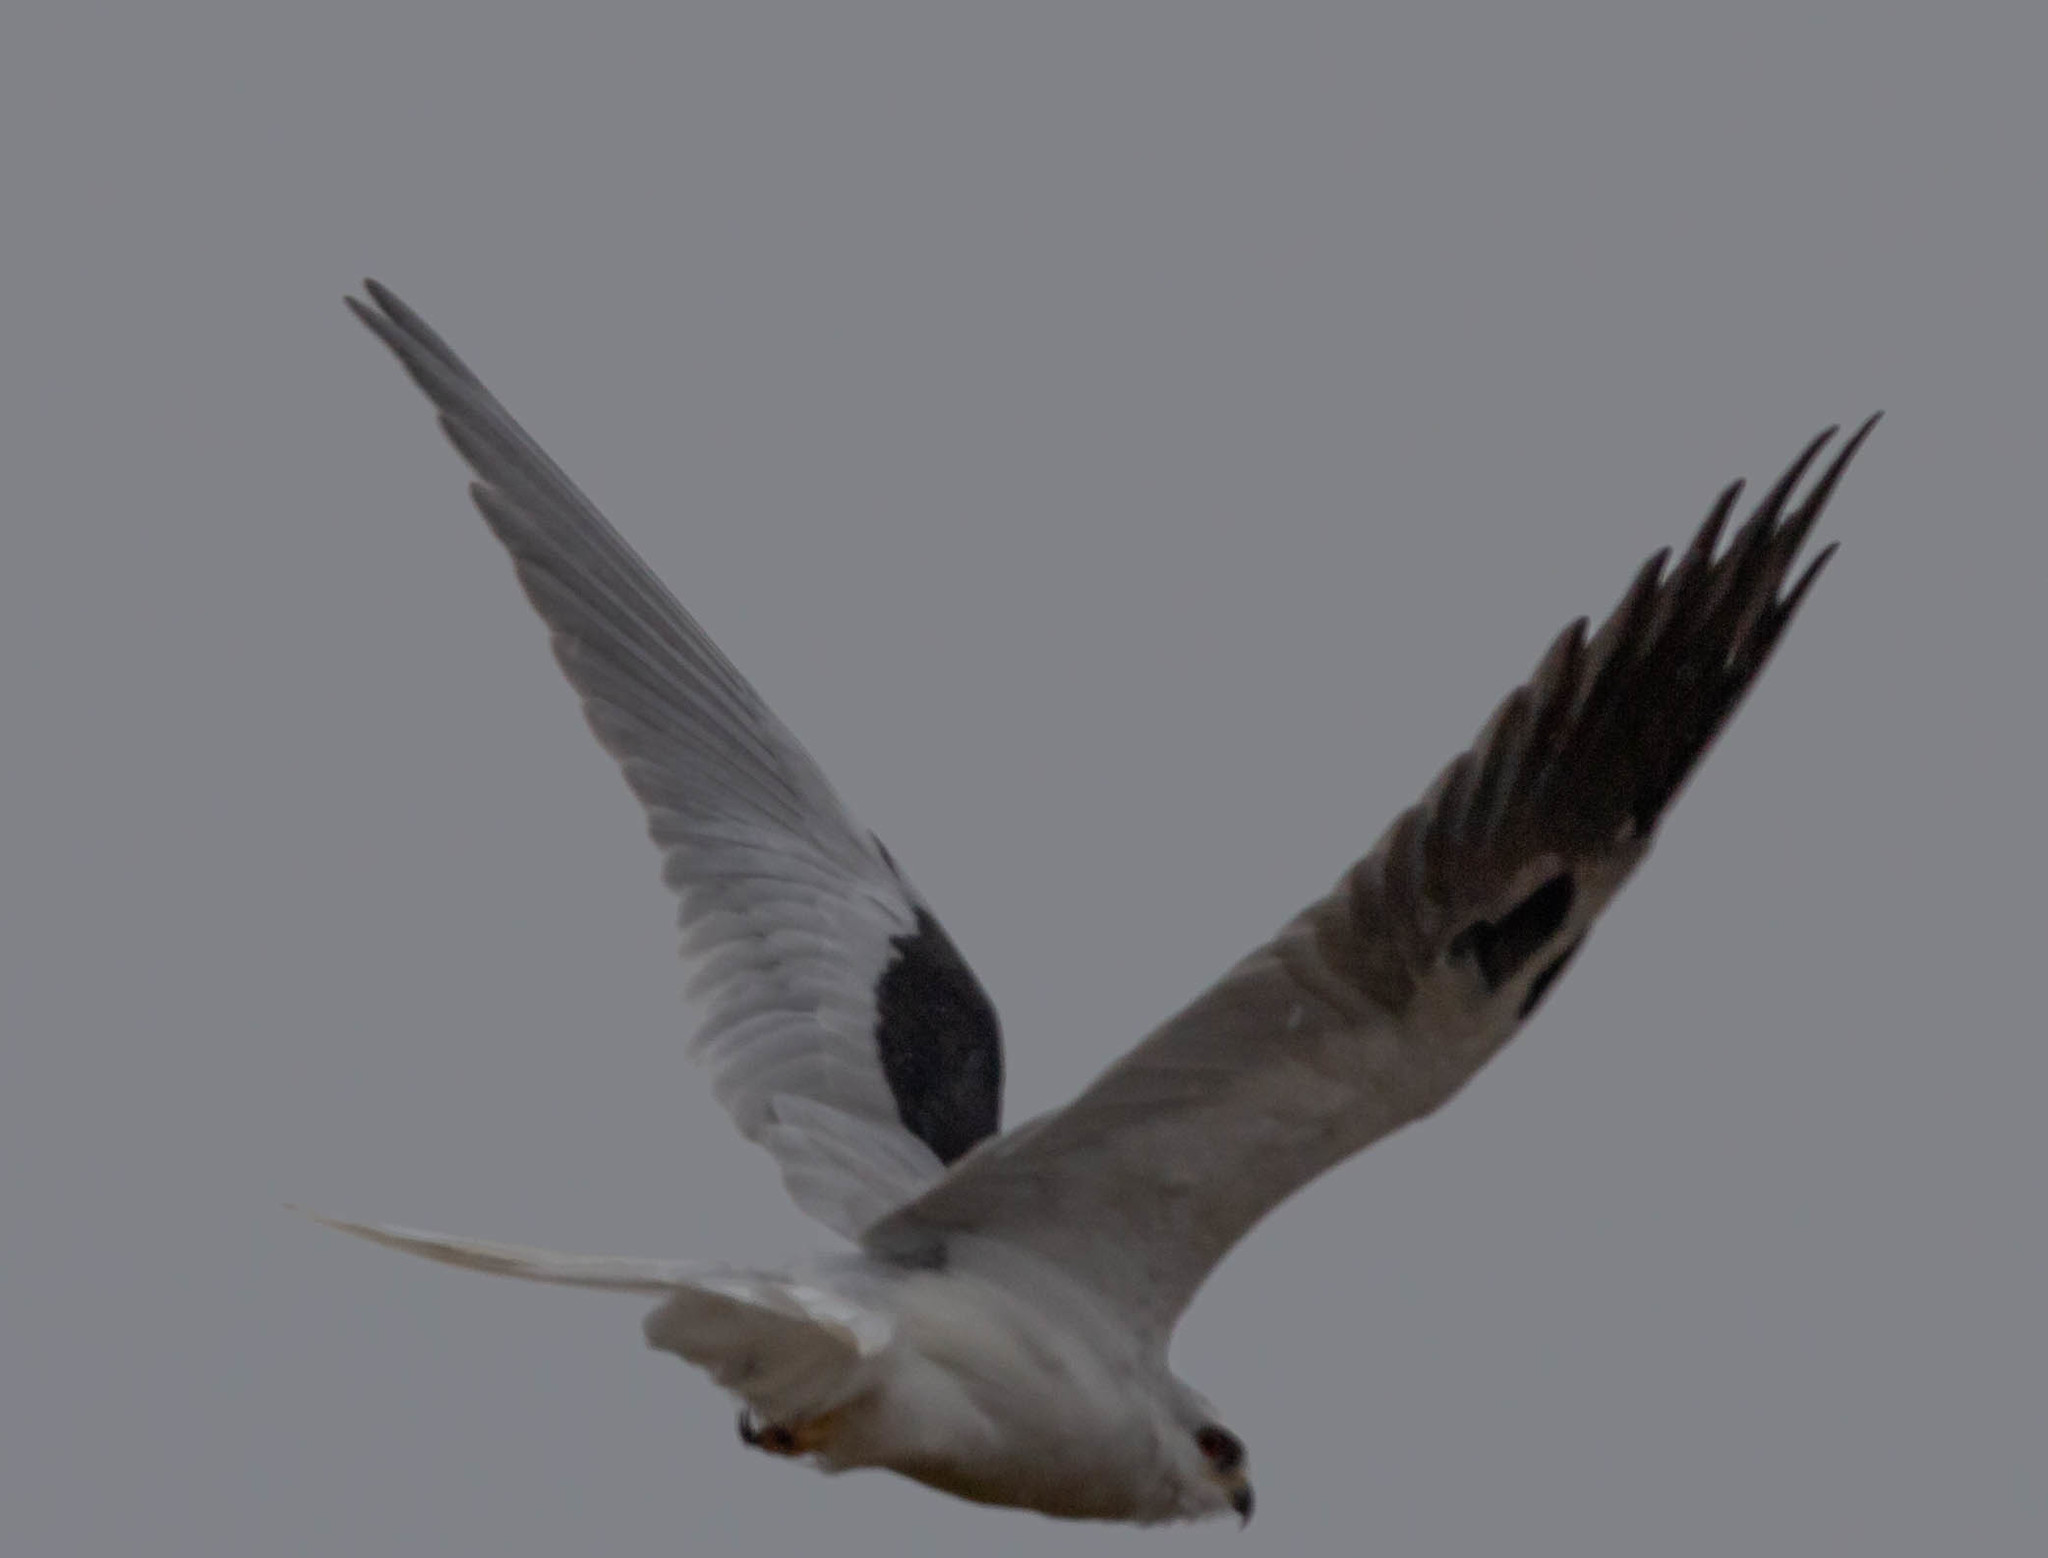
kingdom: Animalia
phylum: Chordata
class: Aves
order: Accipitriformes
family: Accipitridae
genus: Elanus
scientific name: Elanus leucurus
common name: White-tailed kite
